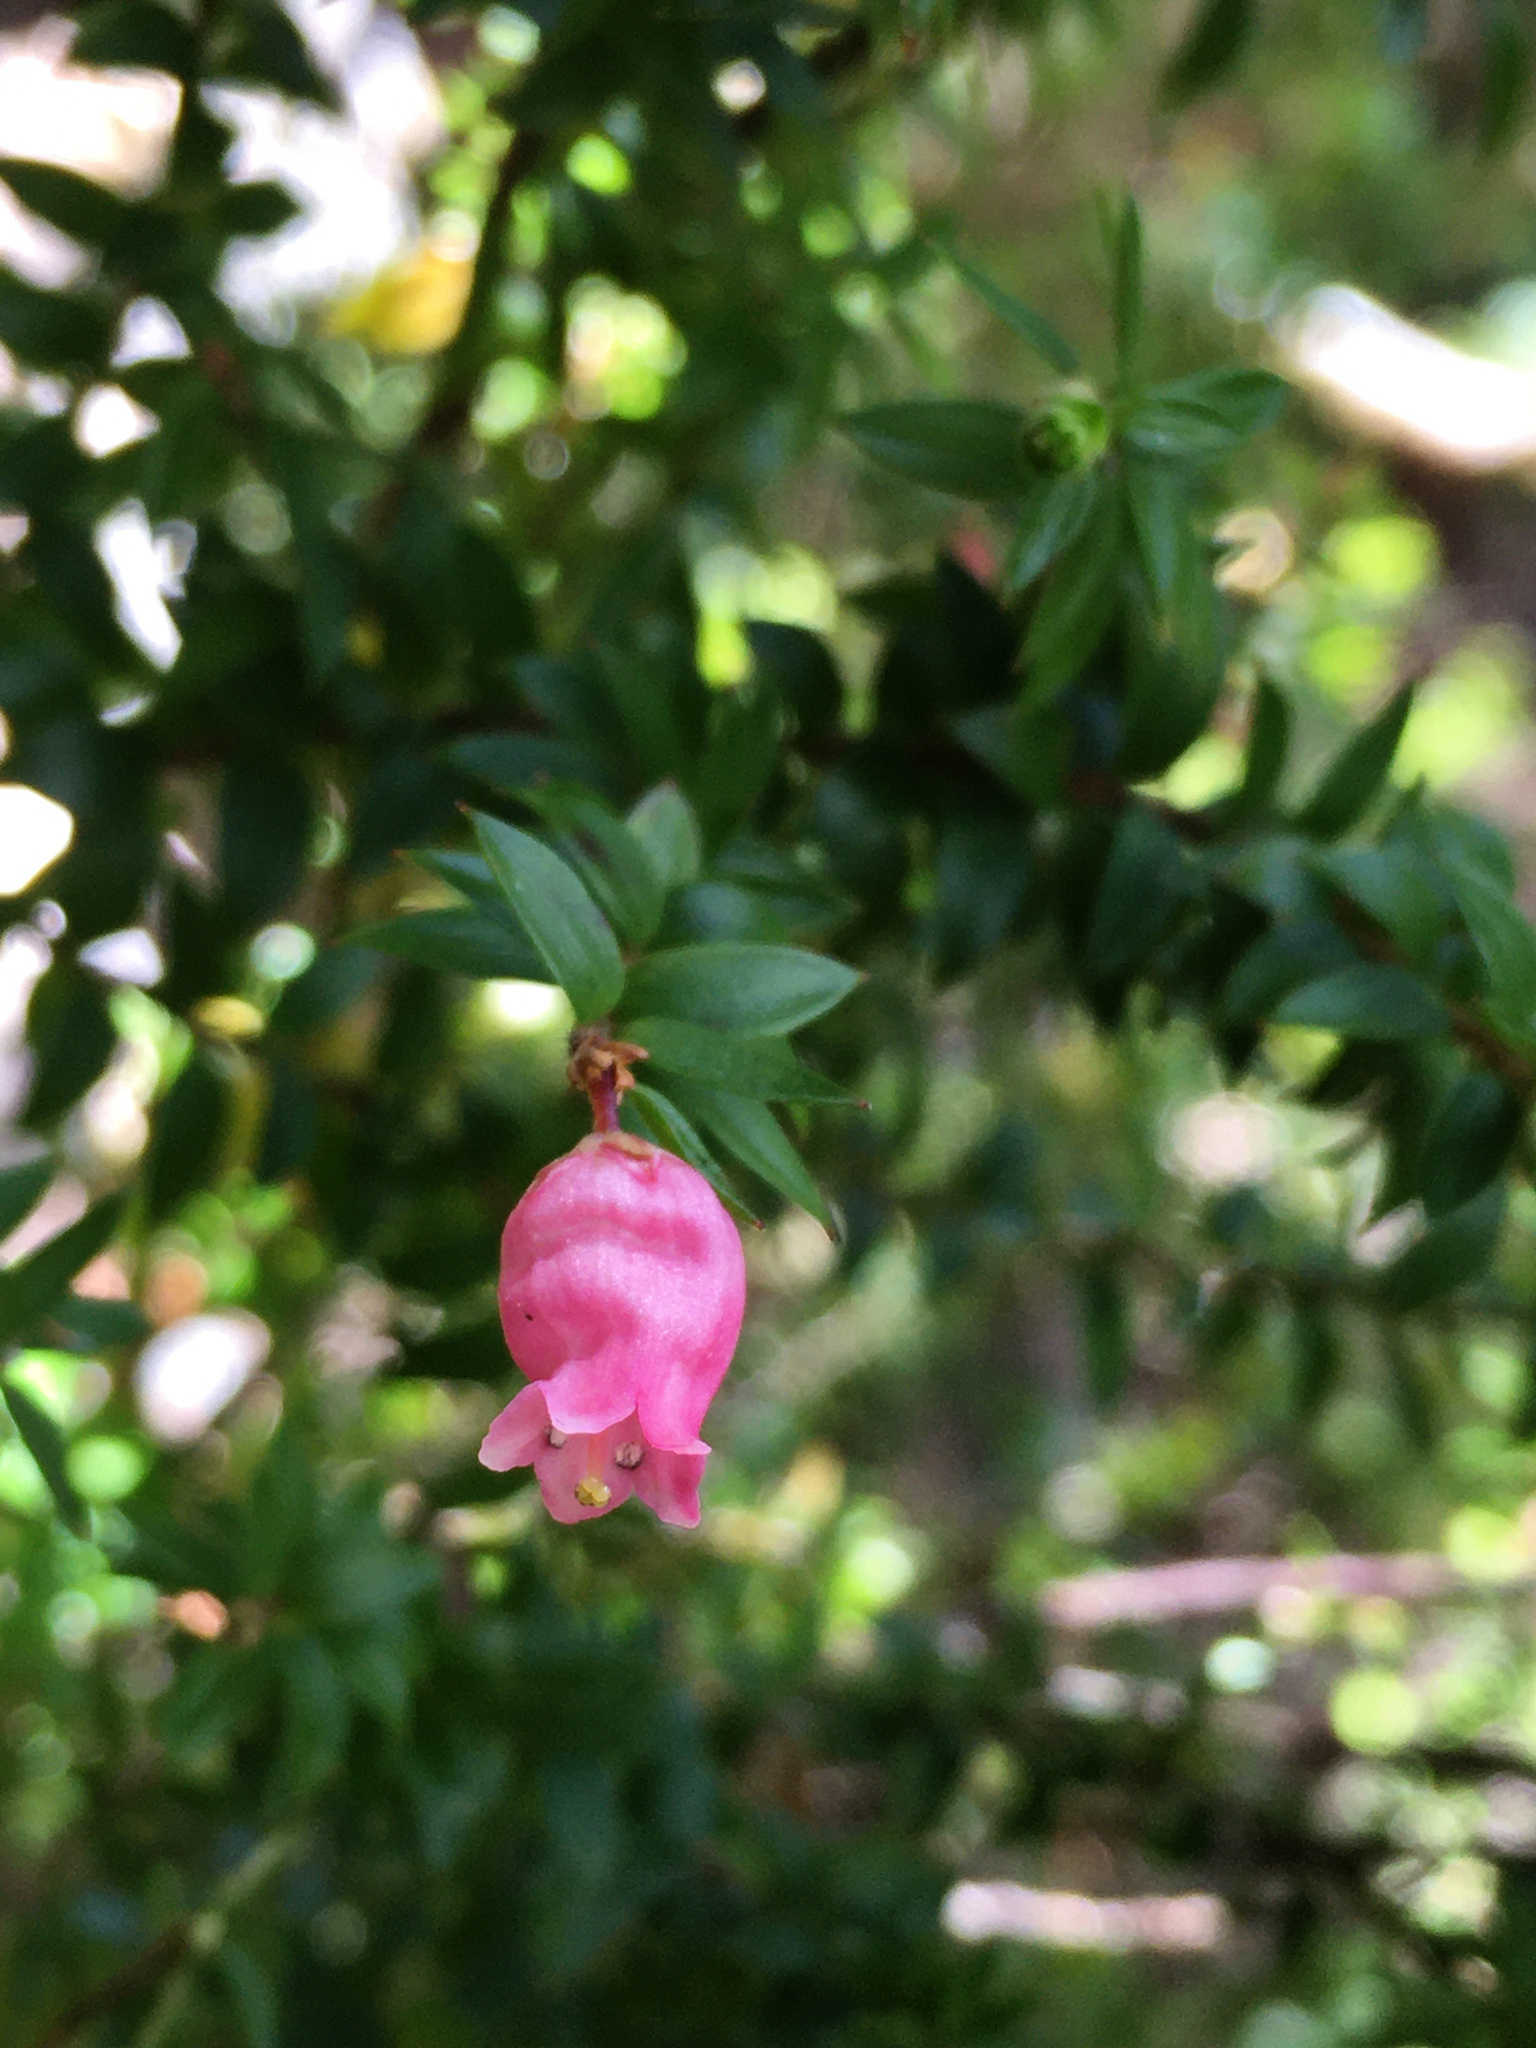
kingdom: Plantae
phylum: Tracheophyta
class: Magnoliopsida
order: Ericales
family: Ericaceae
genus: Archeria
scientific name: Archeria eriocarpa
